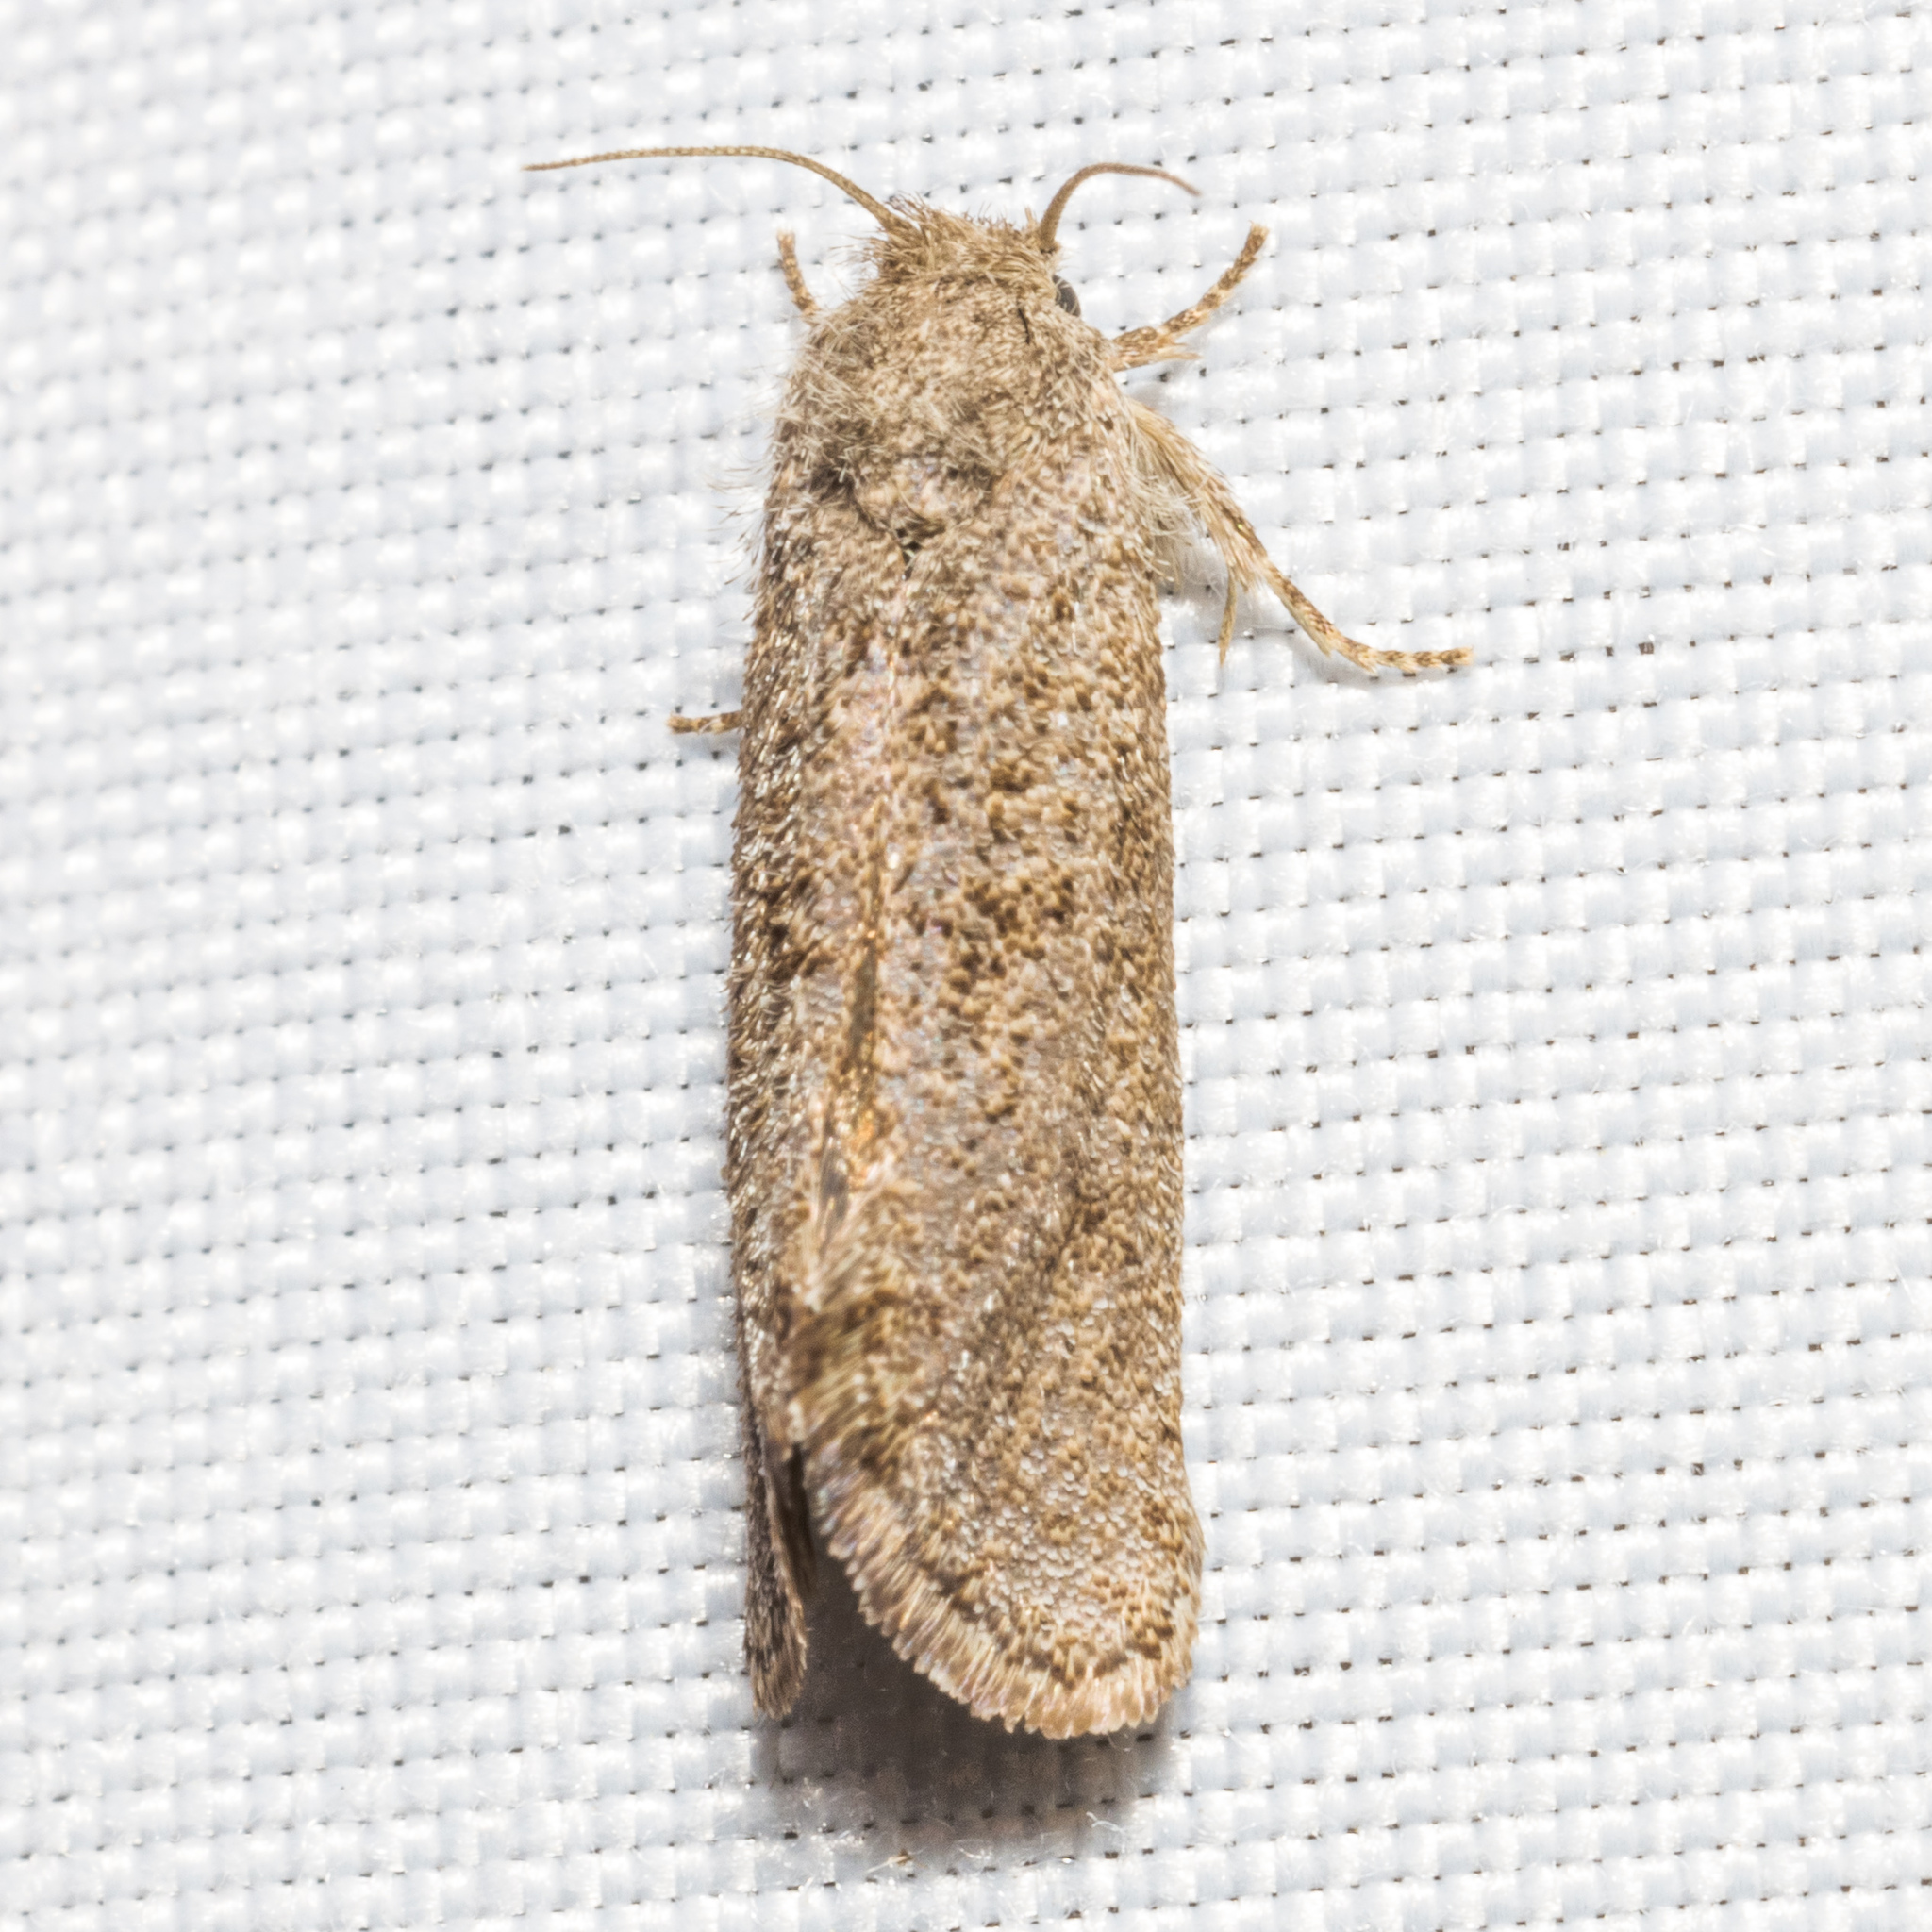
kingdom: Animalia
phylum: Arthropoda
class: Insecta
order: Lepidoptera
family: Tineidae
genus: Acrolophus
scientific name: Acrolophus heppneri
